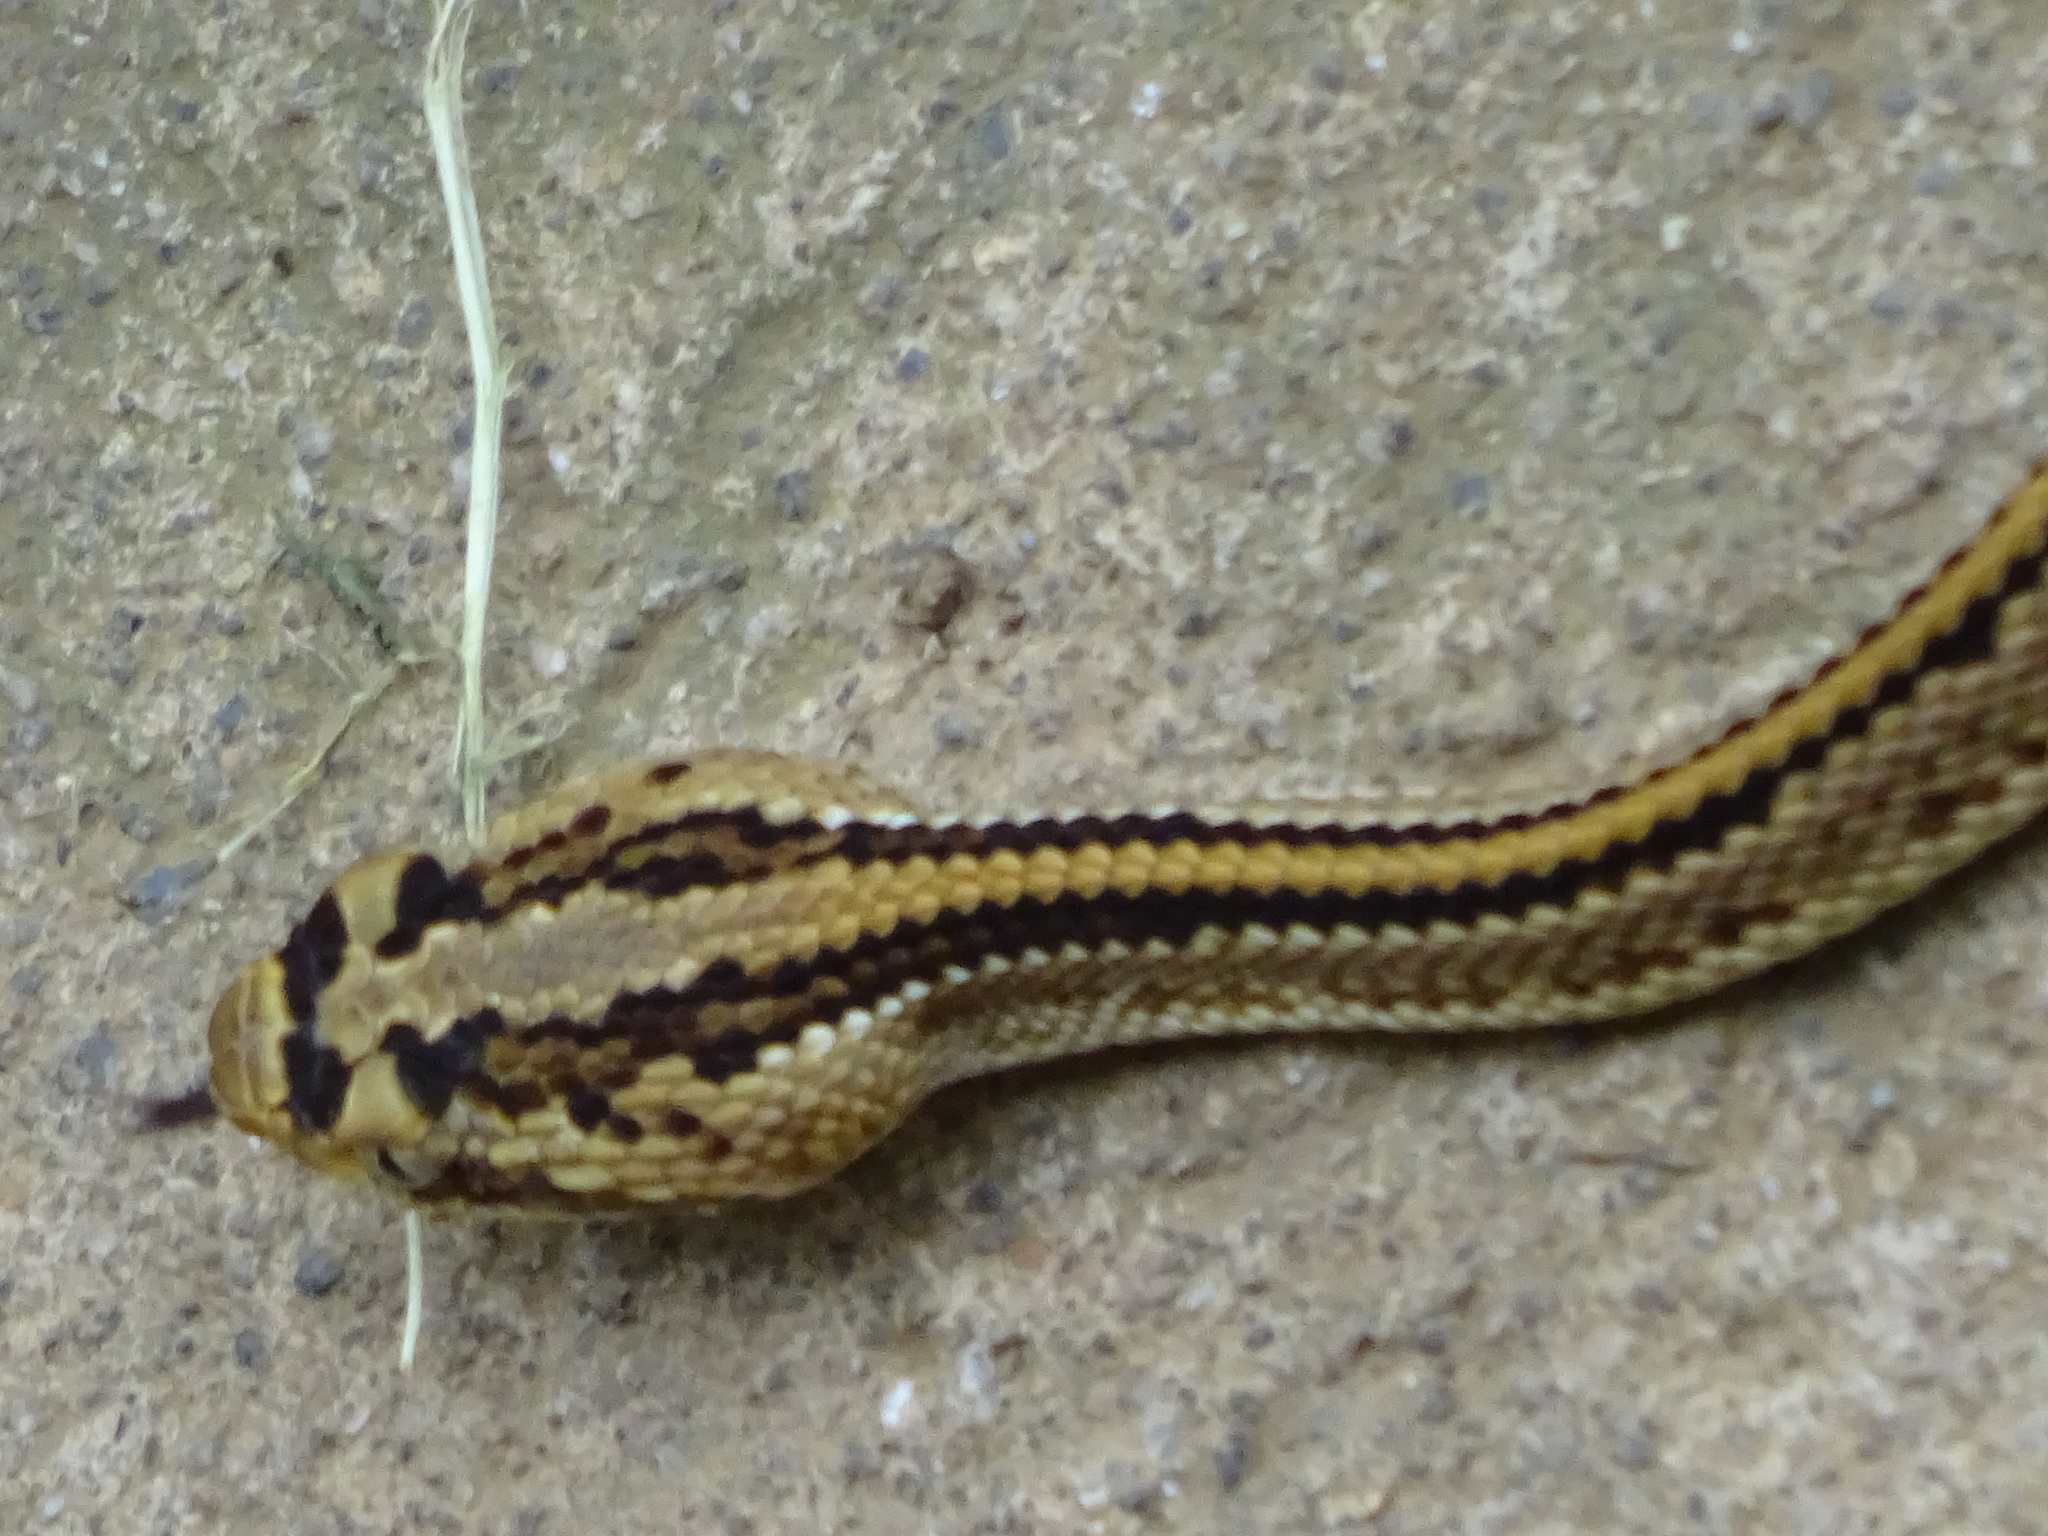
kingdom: Animalia
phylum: Chordata
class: Squamata
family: Viperidae
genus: Crotalus
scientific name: Crotalus simus
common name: Middle american rattlesnake
